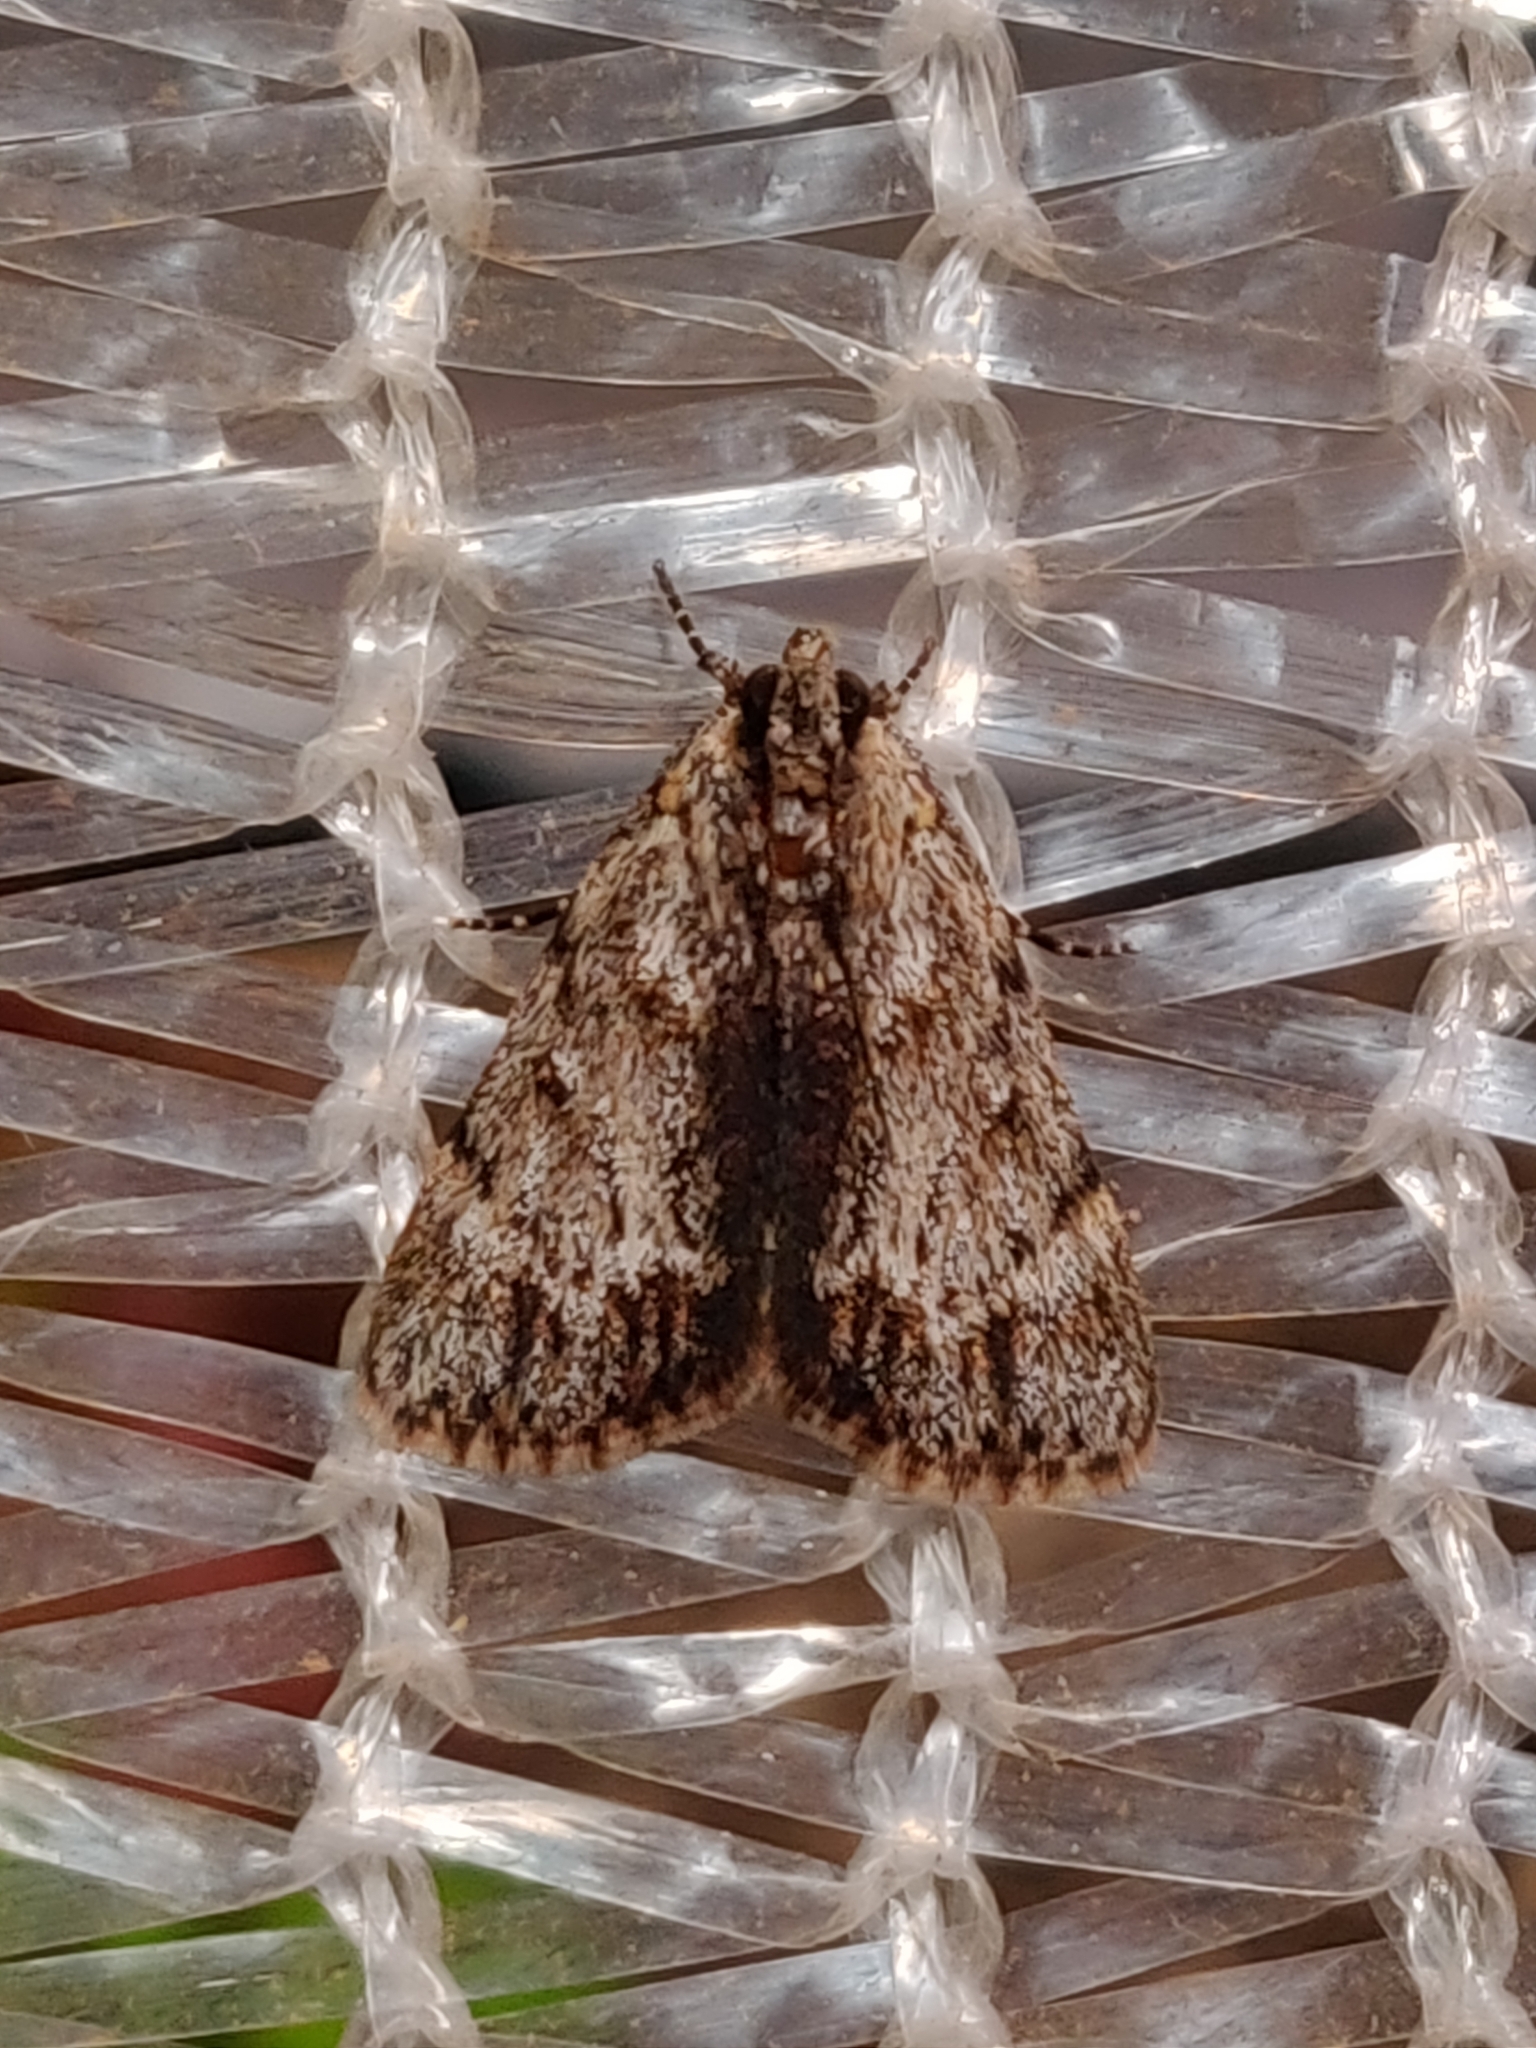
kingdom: Animalia
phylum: Arthropoda
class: Insecta
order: Lepidoptera
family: Pyralidae
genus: Spectrotrota
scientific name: Spectrotrota fimbrialis
